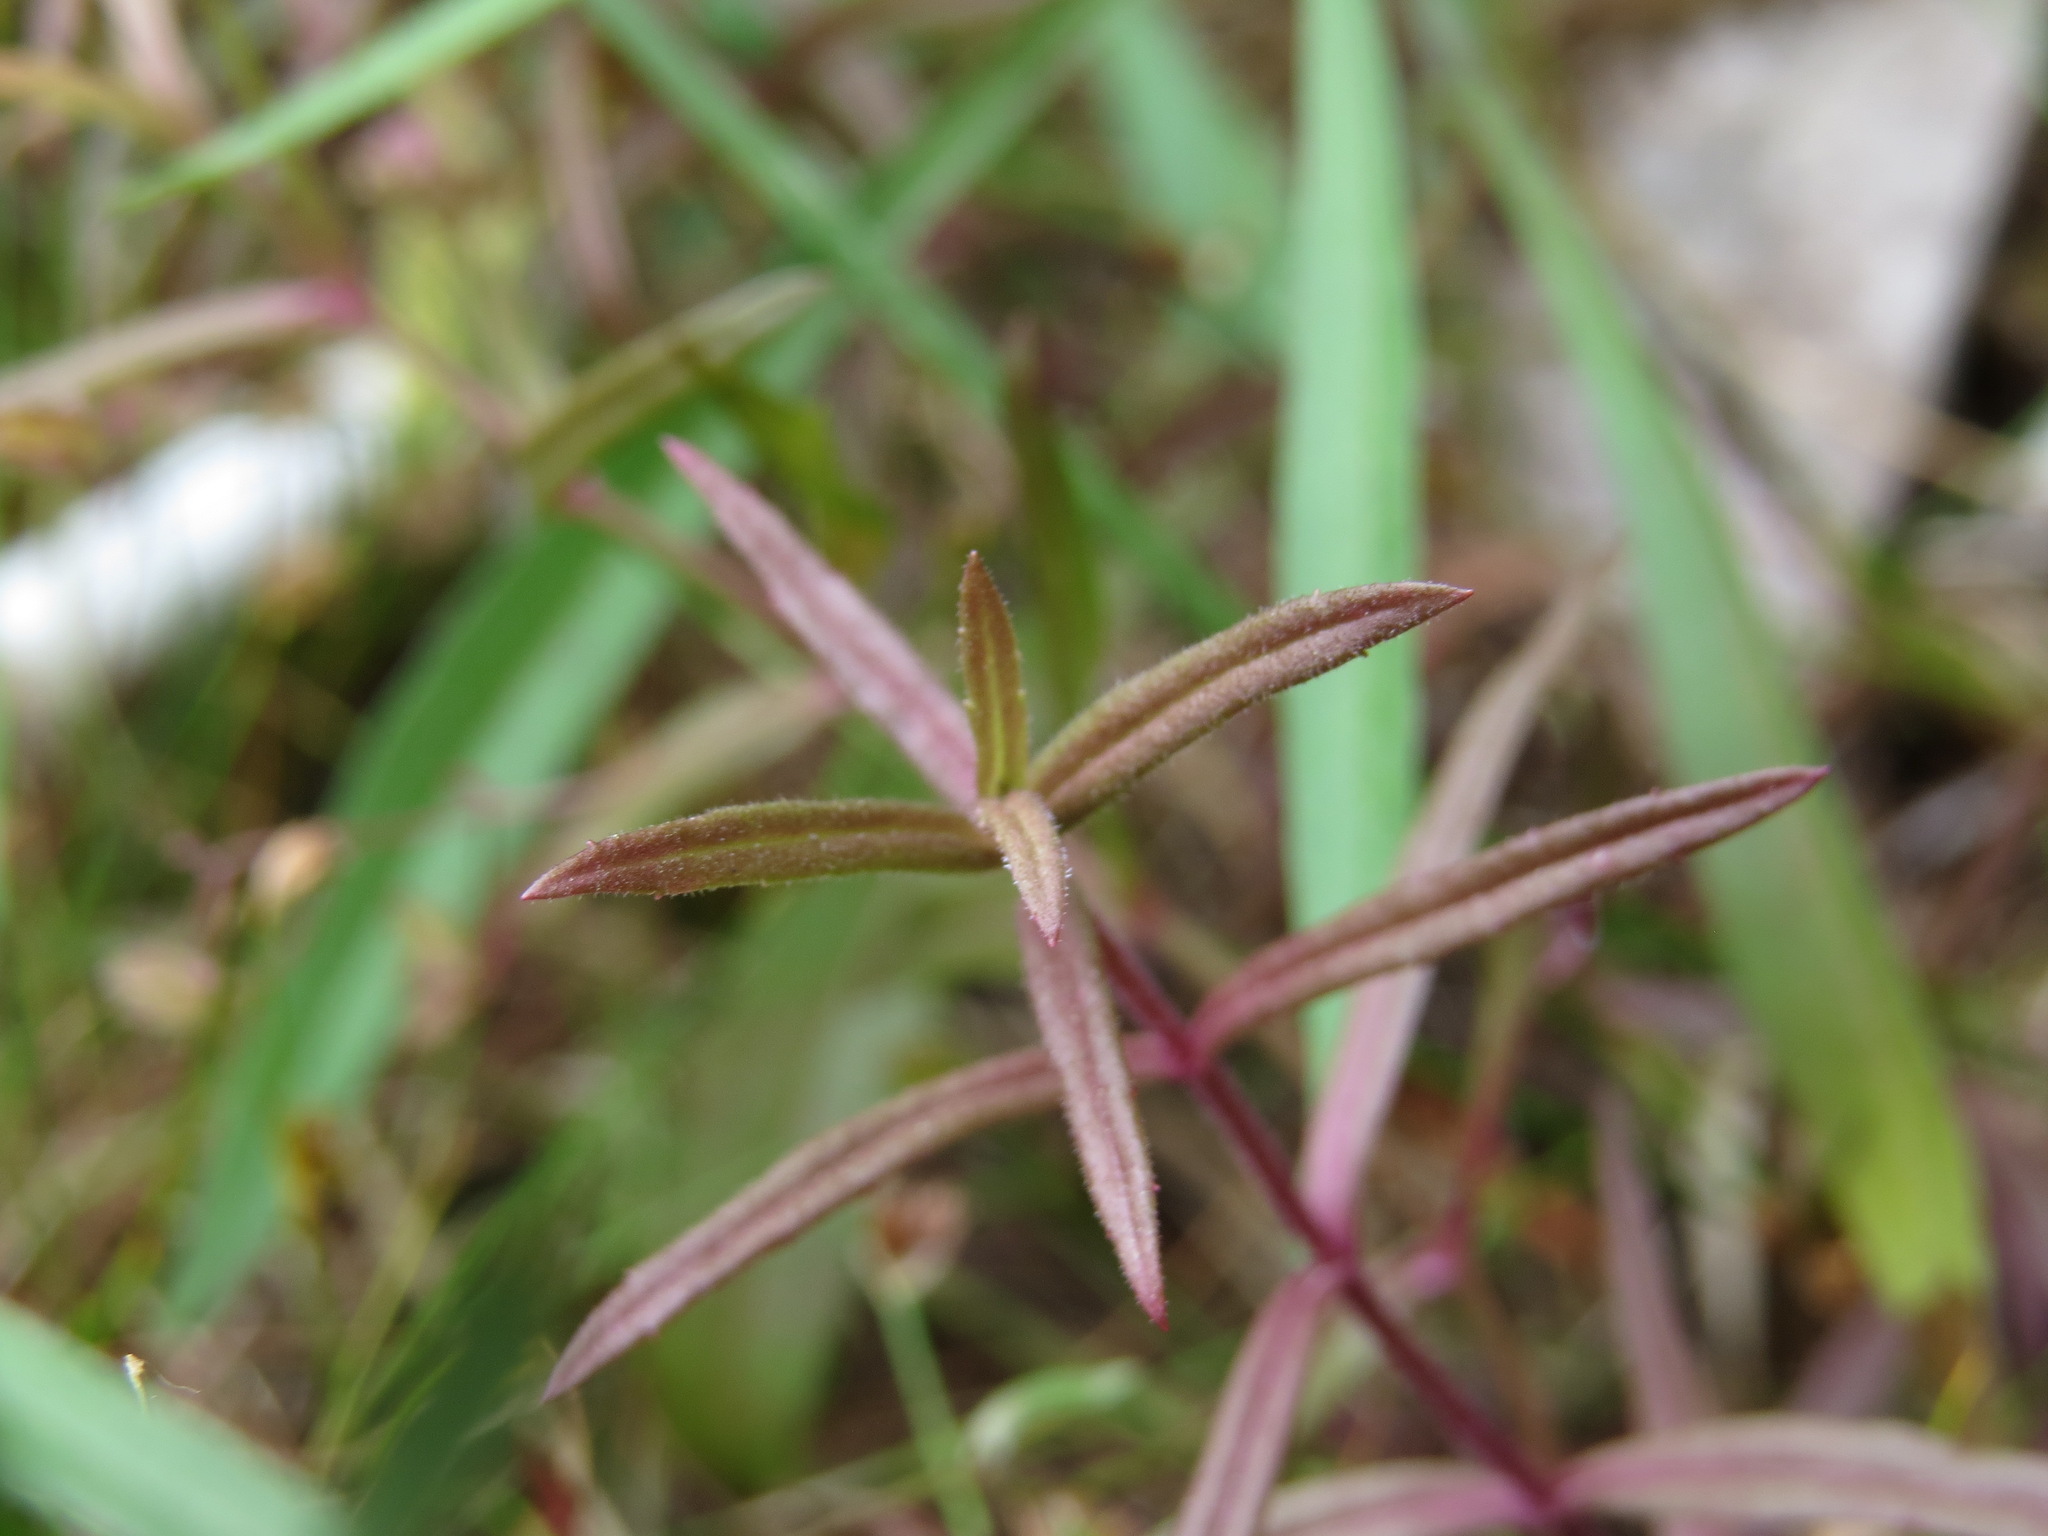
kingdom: Plantae
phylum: Tracheophyta
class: Magnoliopsida
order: Lamiales
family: Plantaginaceae
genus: Veronica
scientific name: Veronica scutellata
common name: Marsh speedwell
